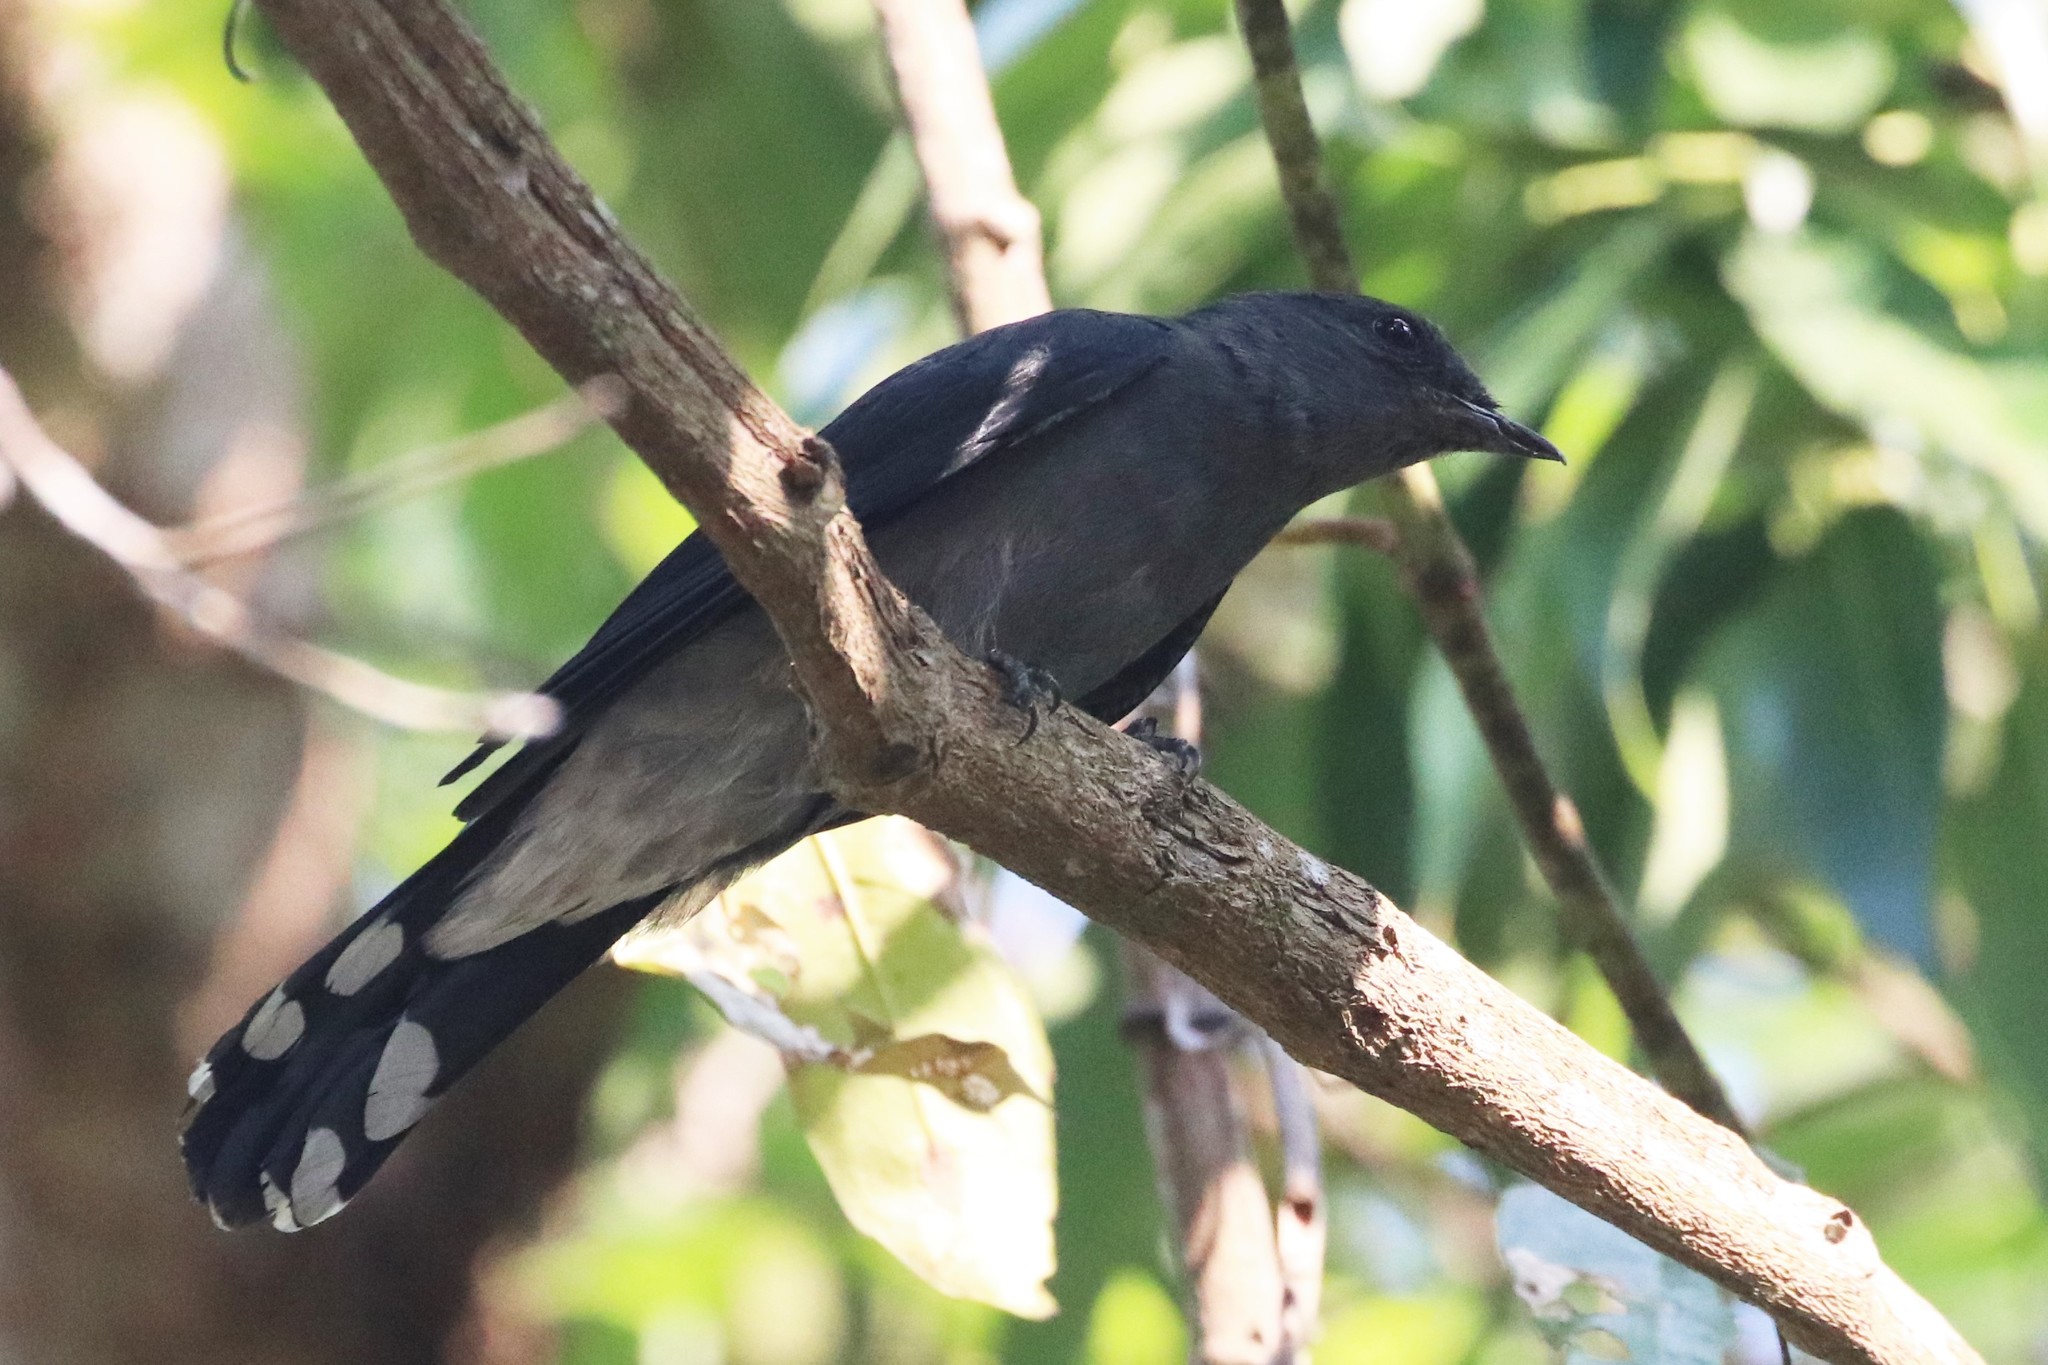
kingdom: Animalia
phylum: Chordata
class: Aves
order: Passeriformes
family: Campephagidae
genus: Coracina
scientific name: Coracina melaschistos
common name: Black-winged cuckooshrike
